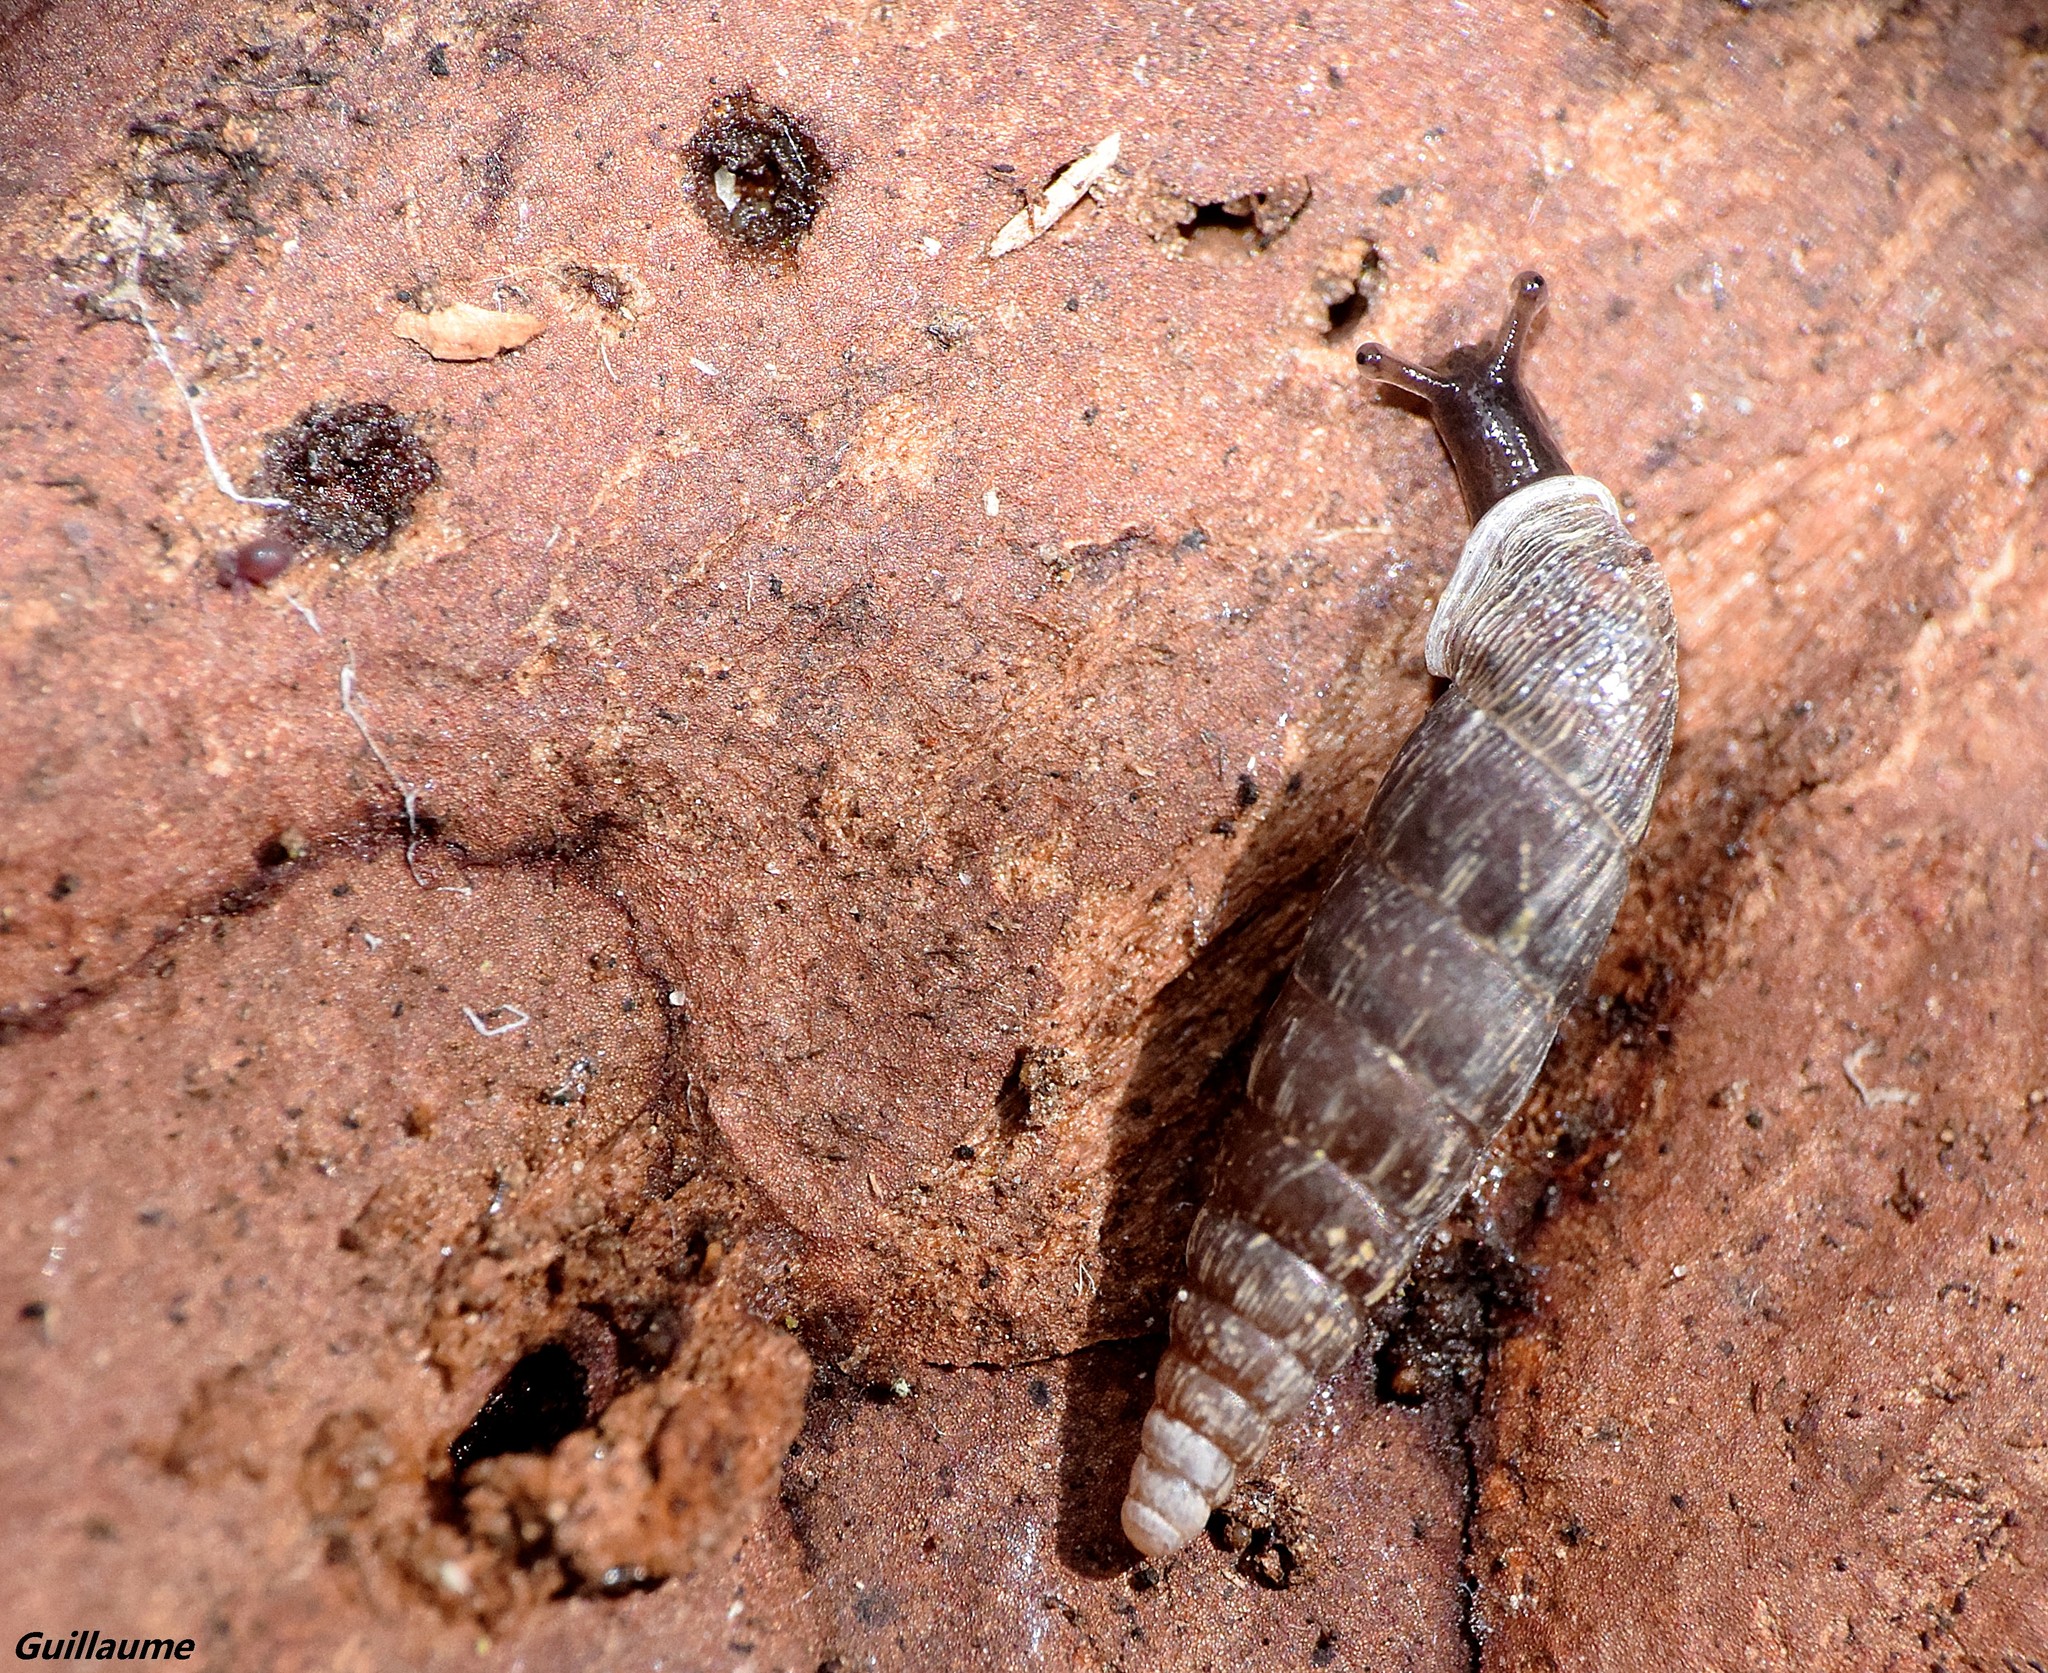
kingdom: Animalia
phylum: Mollusca
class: Gastropoda
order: Stylommatophora
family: Clausiliidae
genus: Clausilia
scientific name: Clausilia bidentata
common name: Two-toothed door snail
